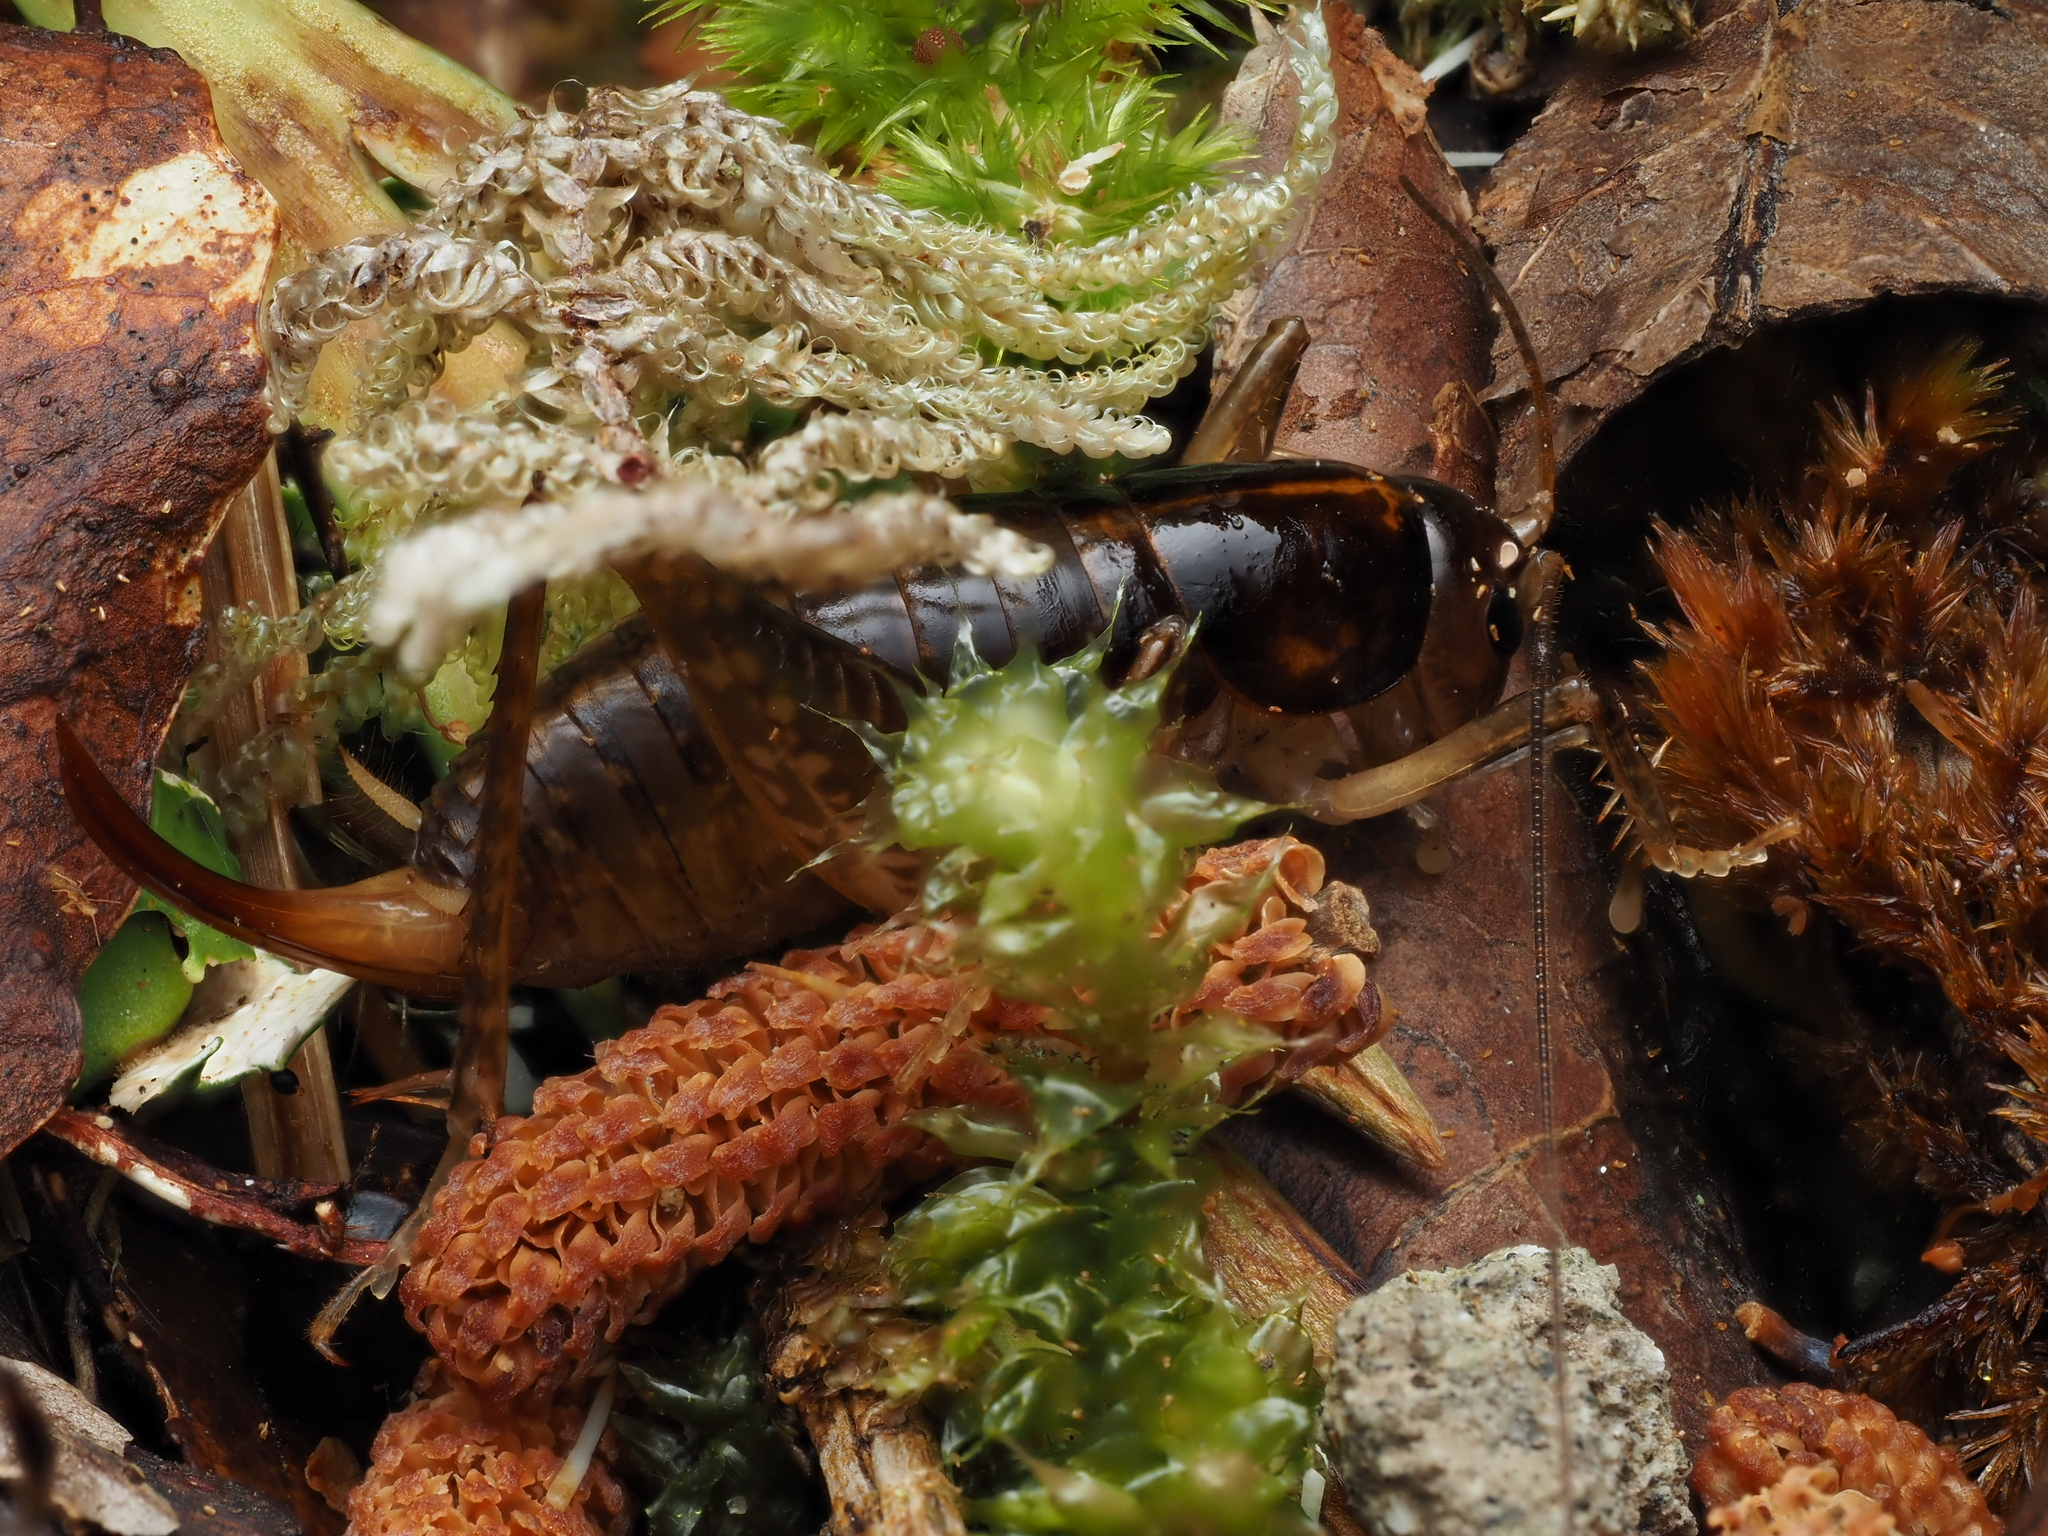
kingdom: Animalia
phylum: Arthropoda
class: Insecta
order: Orthoptera
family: Anostostomatidae
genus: Hemiandrus
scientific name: Hemiandrus brucei
